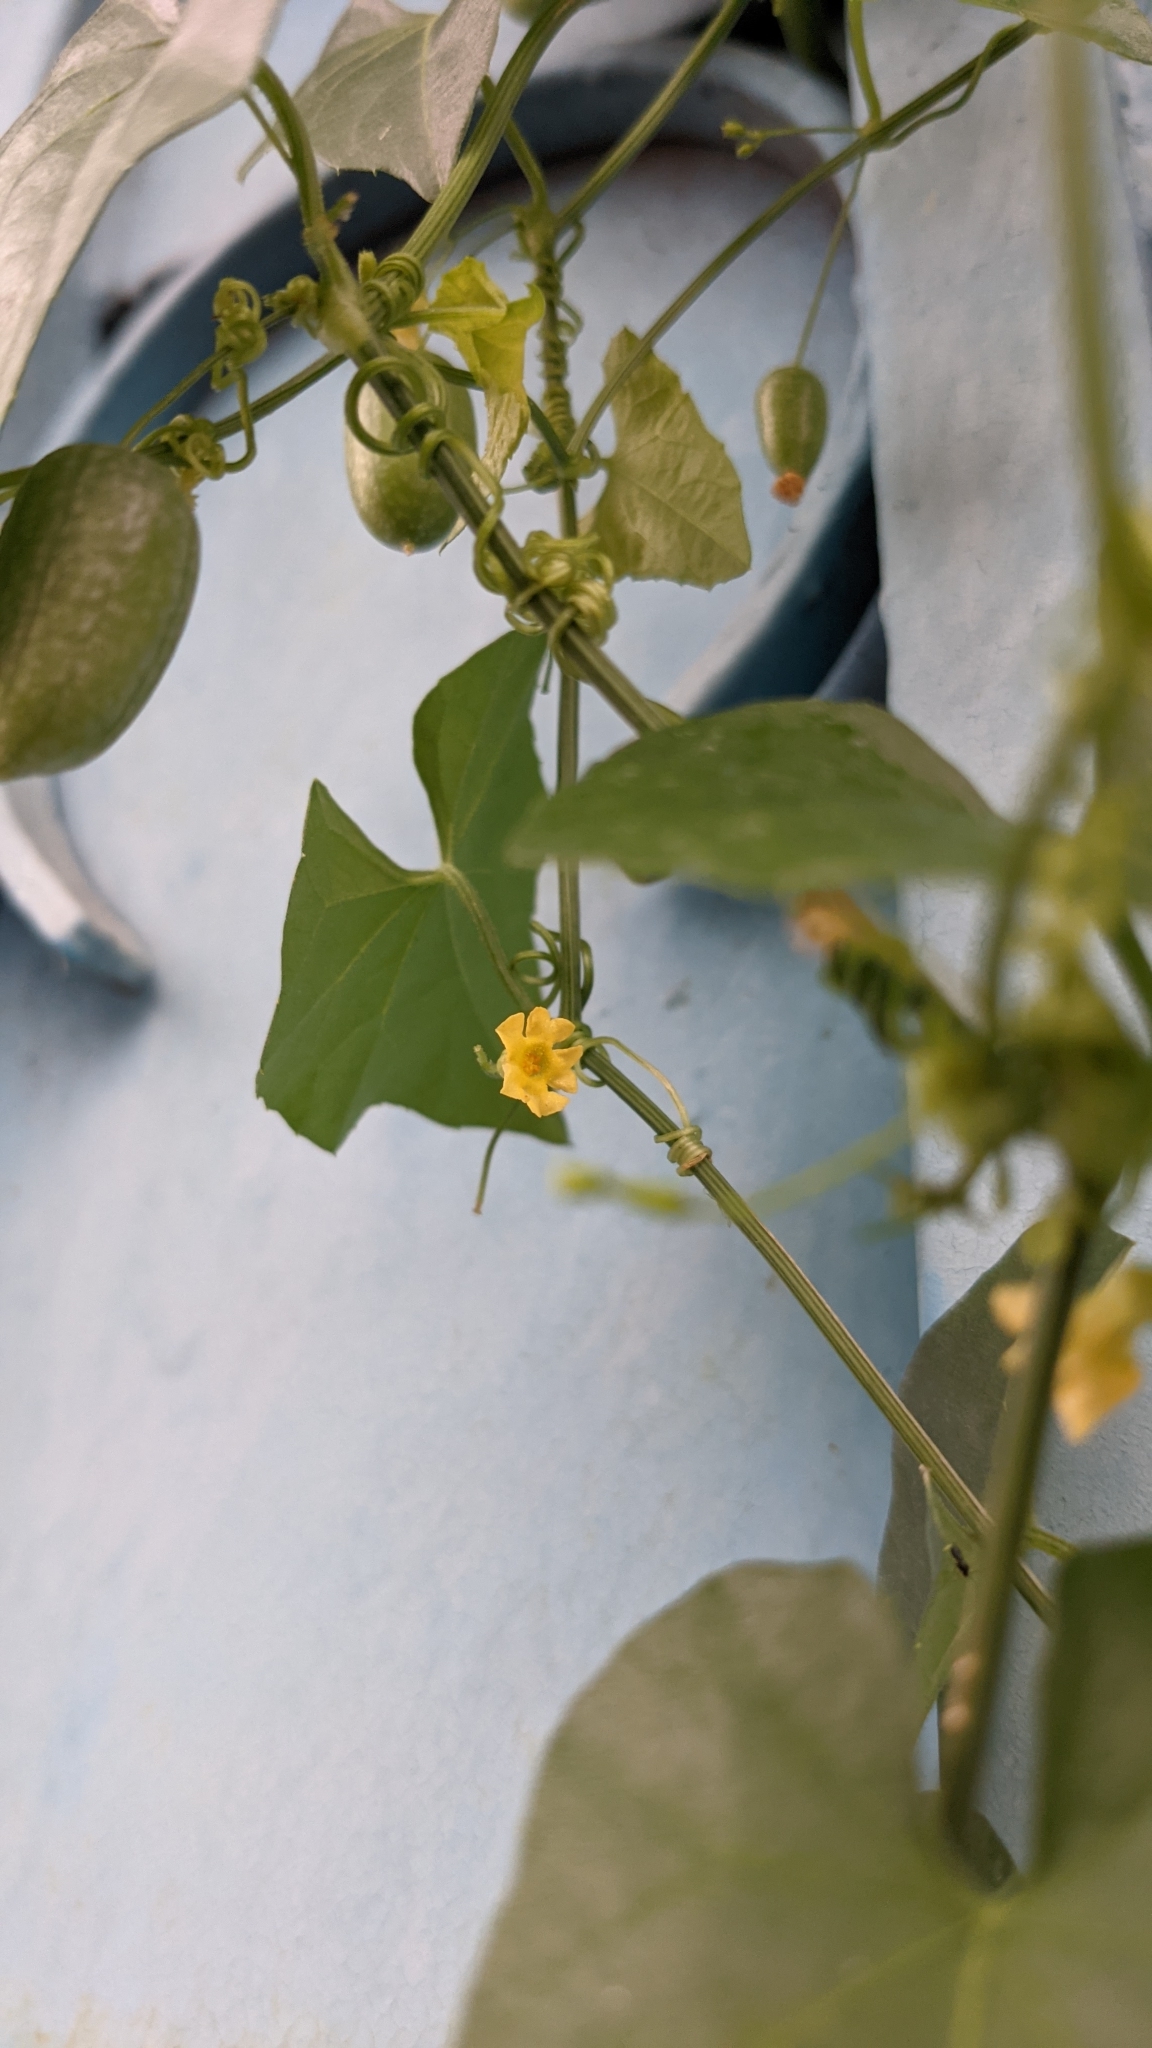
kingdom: Plantae
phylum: Tracheophyta
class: Magnoliopsida
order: Cucurbitales
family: Cucurbitaceae
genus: Melothria
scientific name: Melothria pendula
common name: Creeping-cucumber
